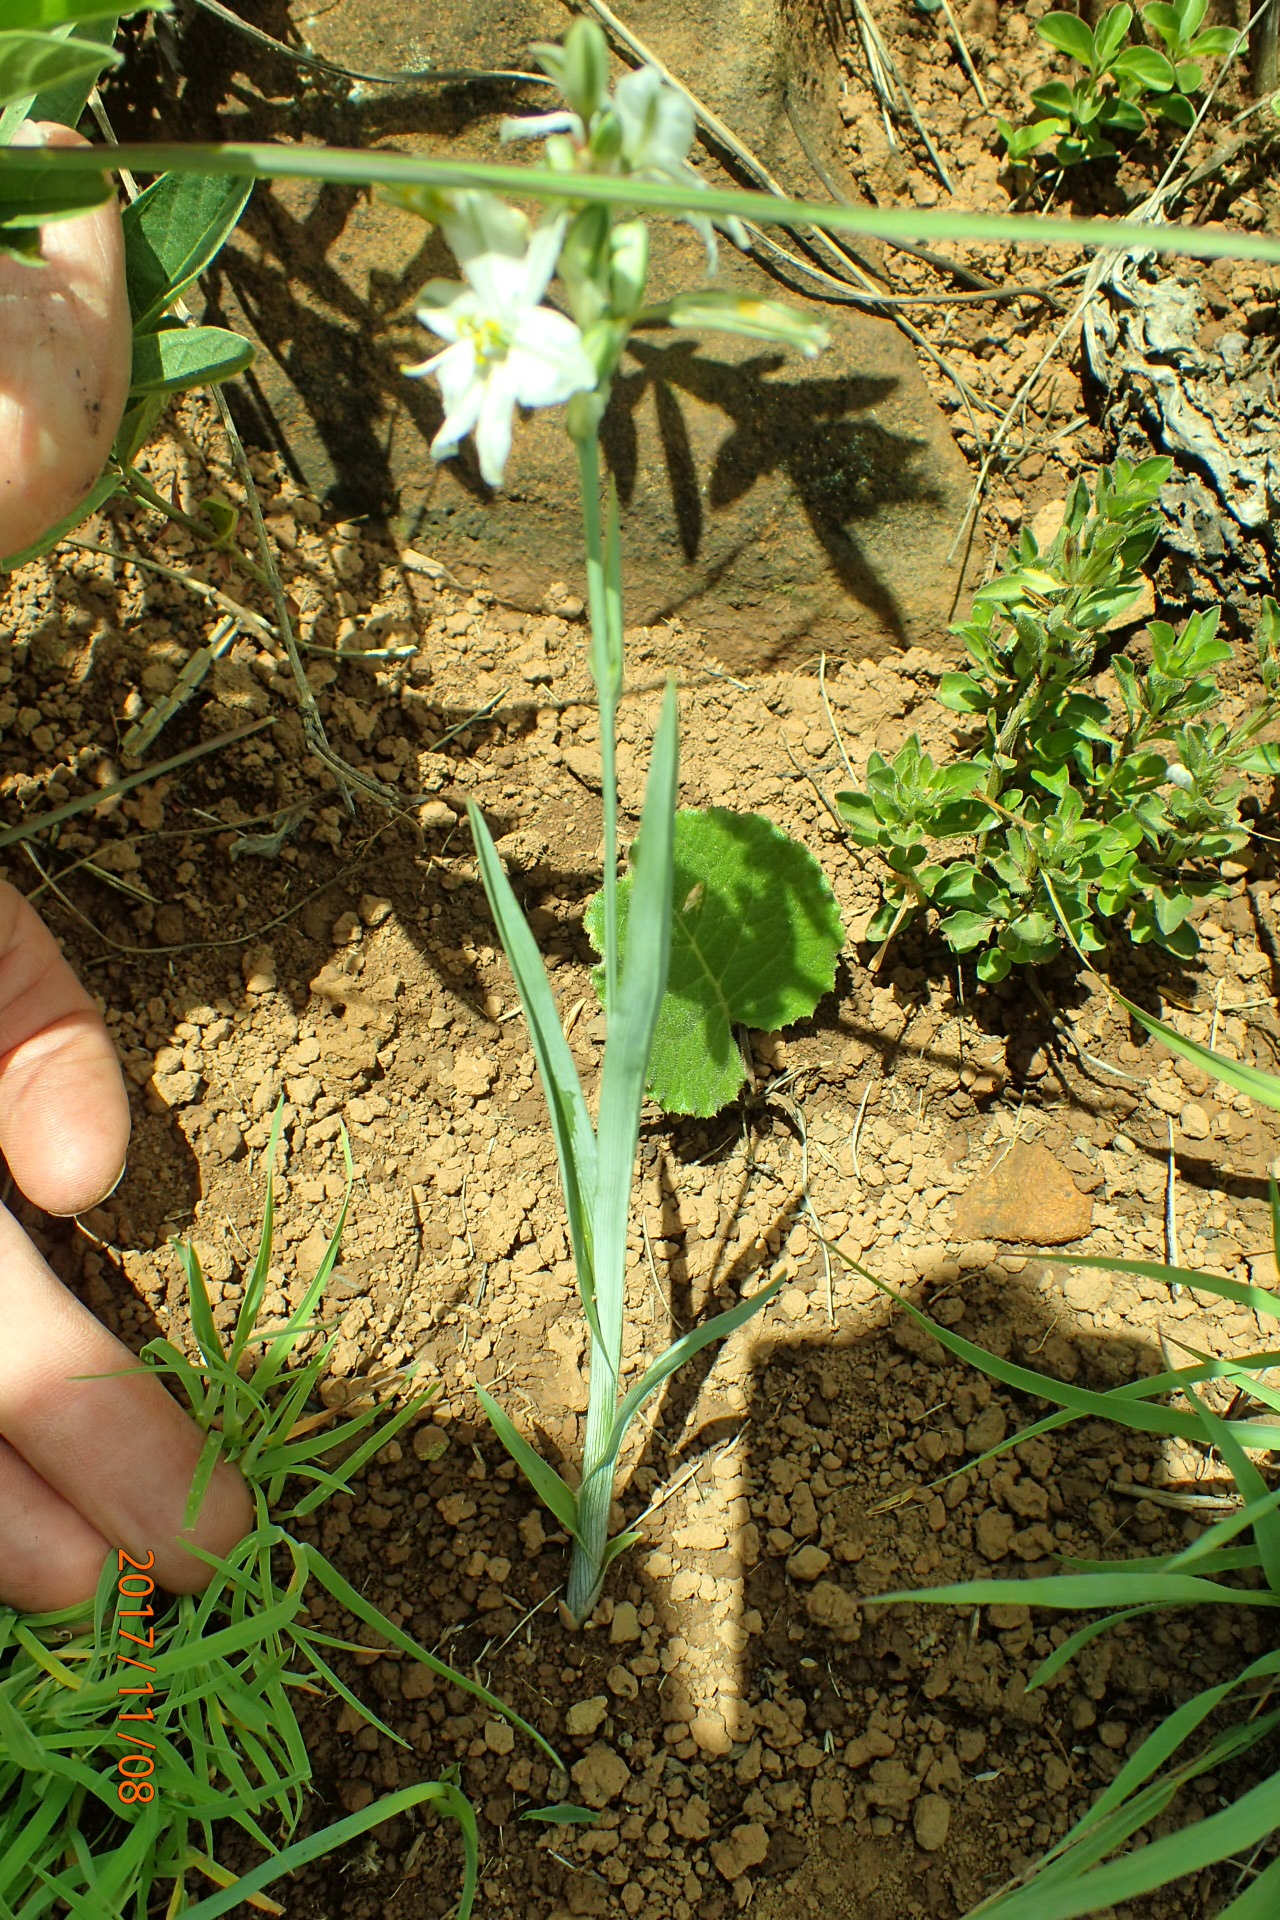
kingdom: Plantae
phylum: Tracheophyta
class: Liliopsida
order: Asparagales
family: Asparagaceae
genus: Chlorophytum
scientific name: Chlorophytum cooperi
